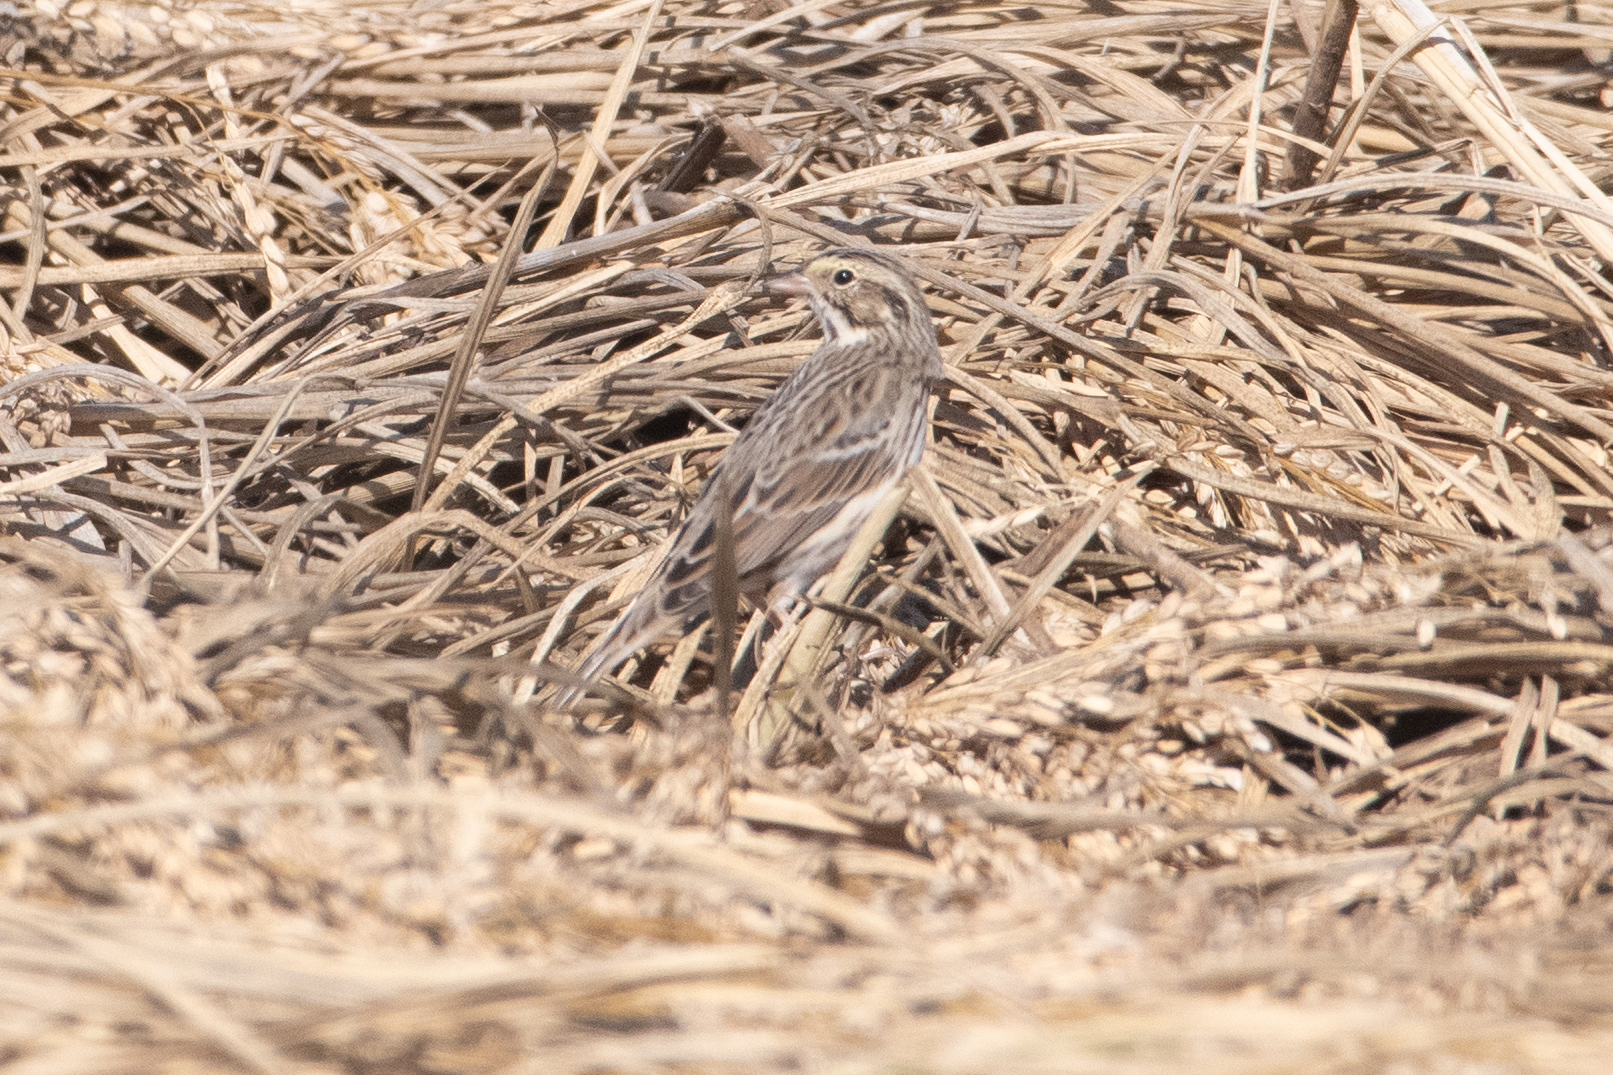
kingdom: Animalia
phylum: Chordata
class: Aves
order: Passeriformes
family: Passerellidae
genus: Passerculus
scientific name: Passerculus sandwichensis
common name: Savannah sparrow
